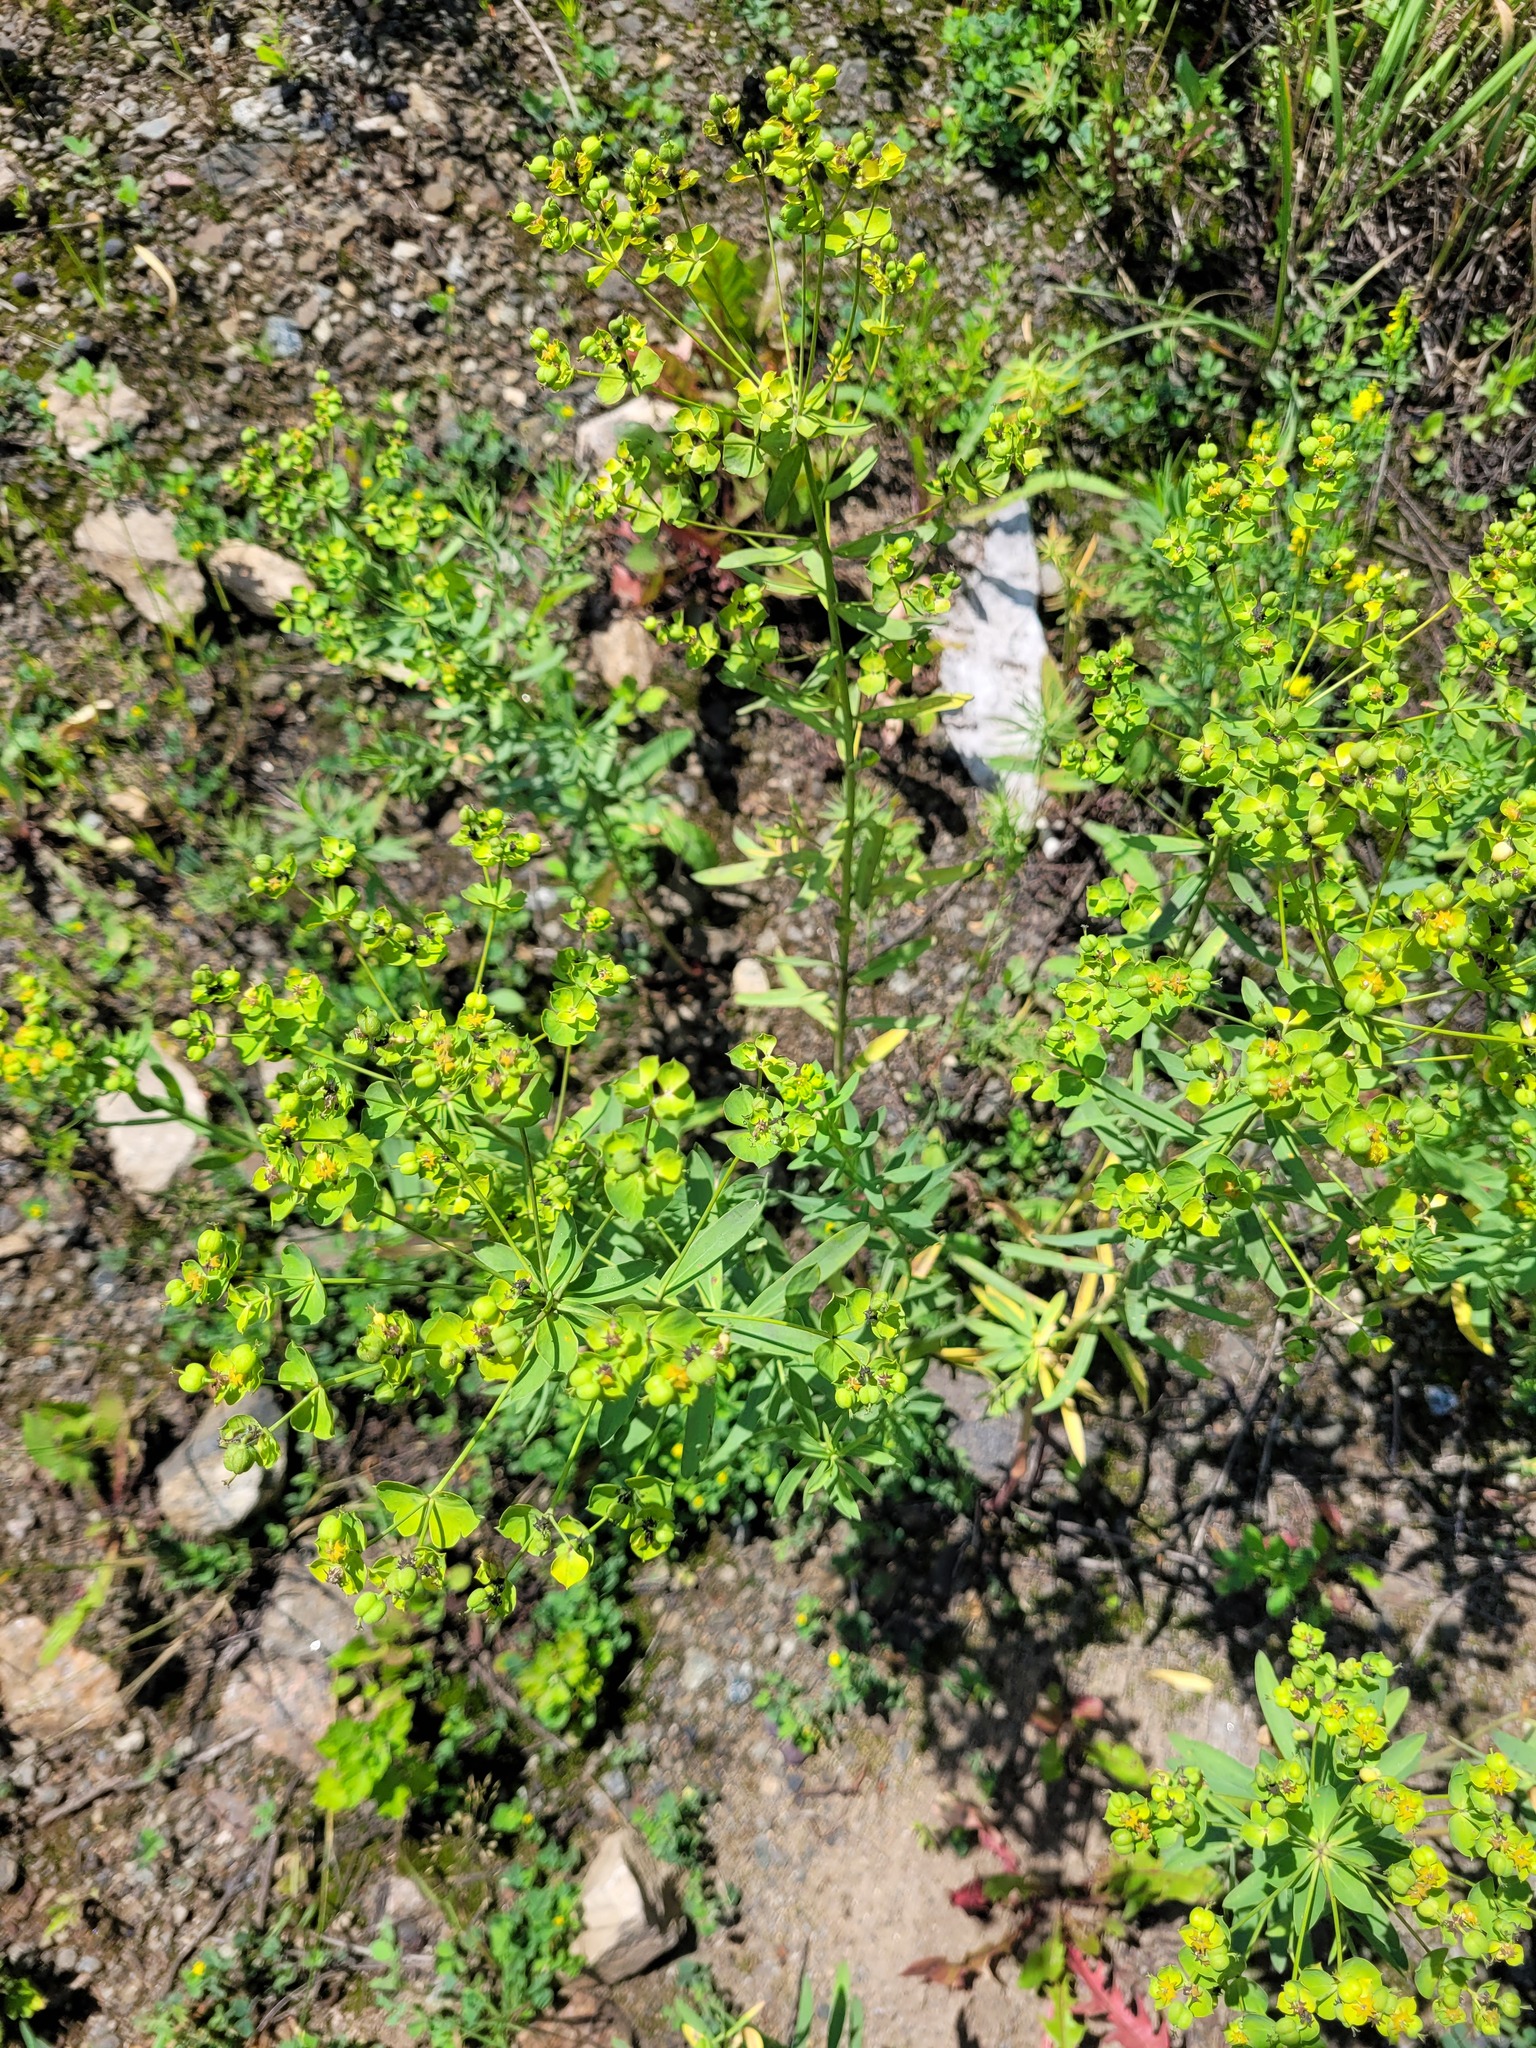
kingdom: Plantae
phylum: Tracheophyta
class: Magnoliopsida
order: Malpighiales
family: Euphorbiaceae
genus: Euphorbia
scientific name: Euphorbia virgata
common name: Leafy spurge
